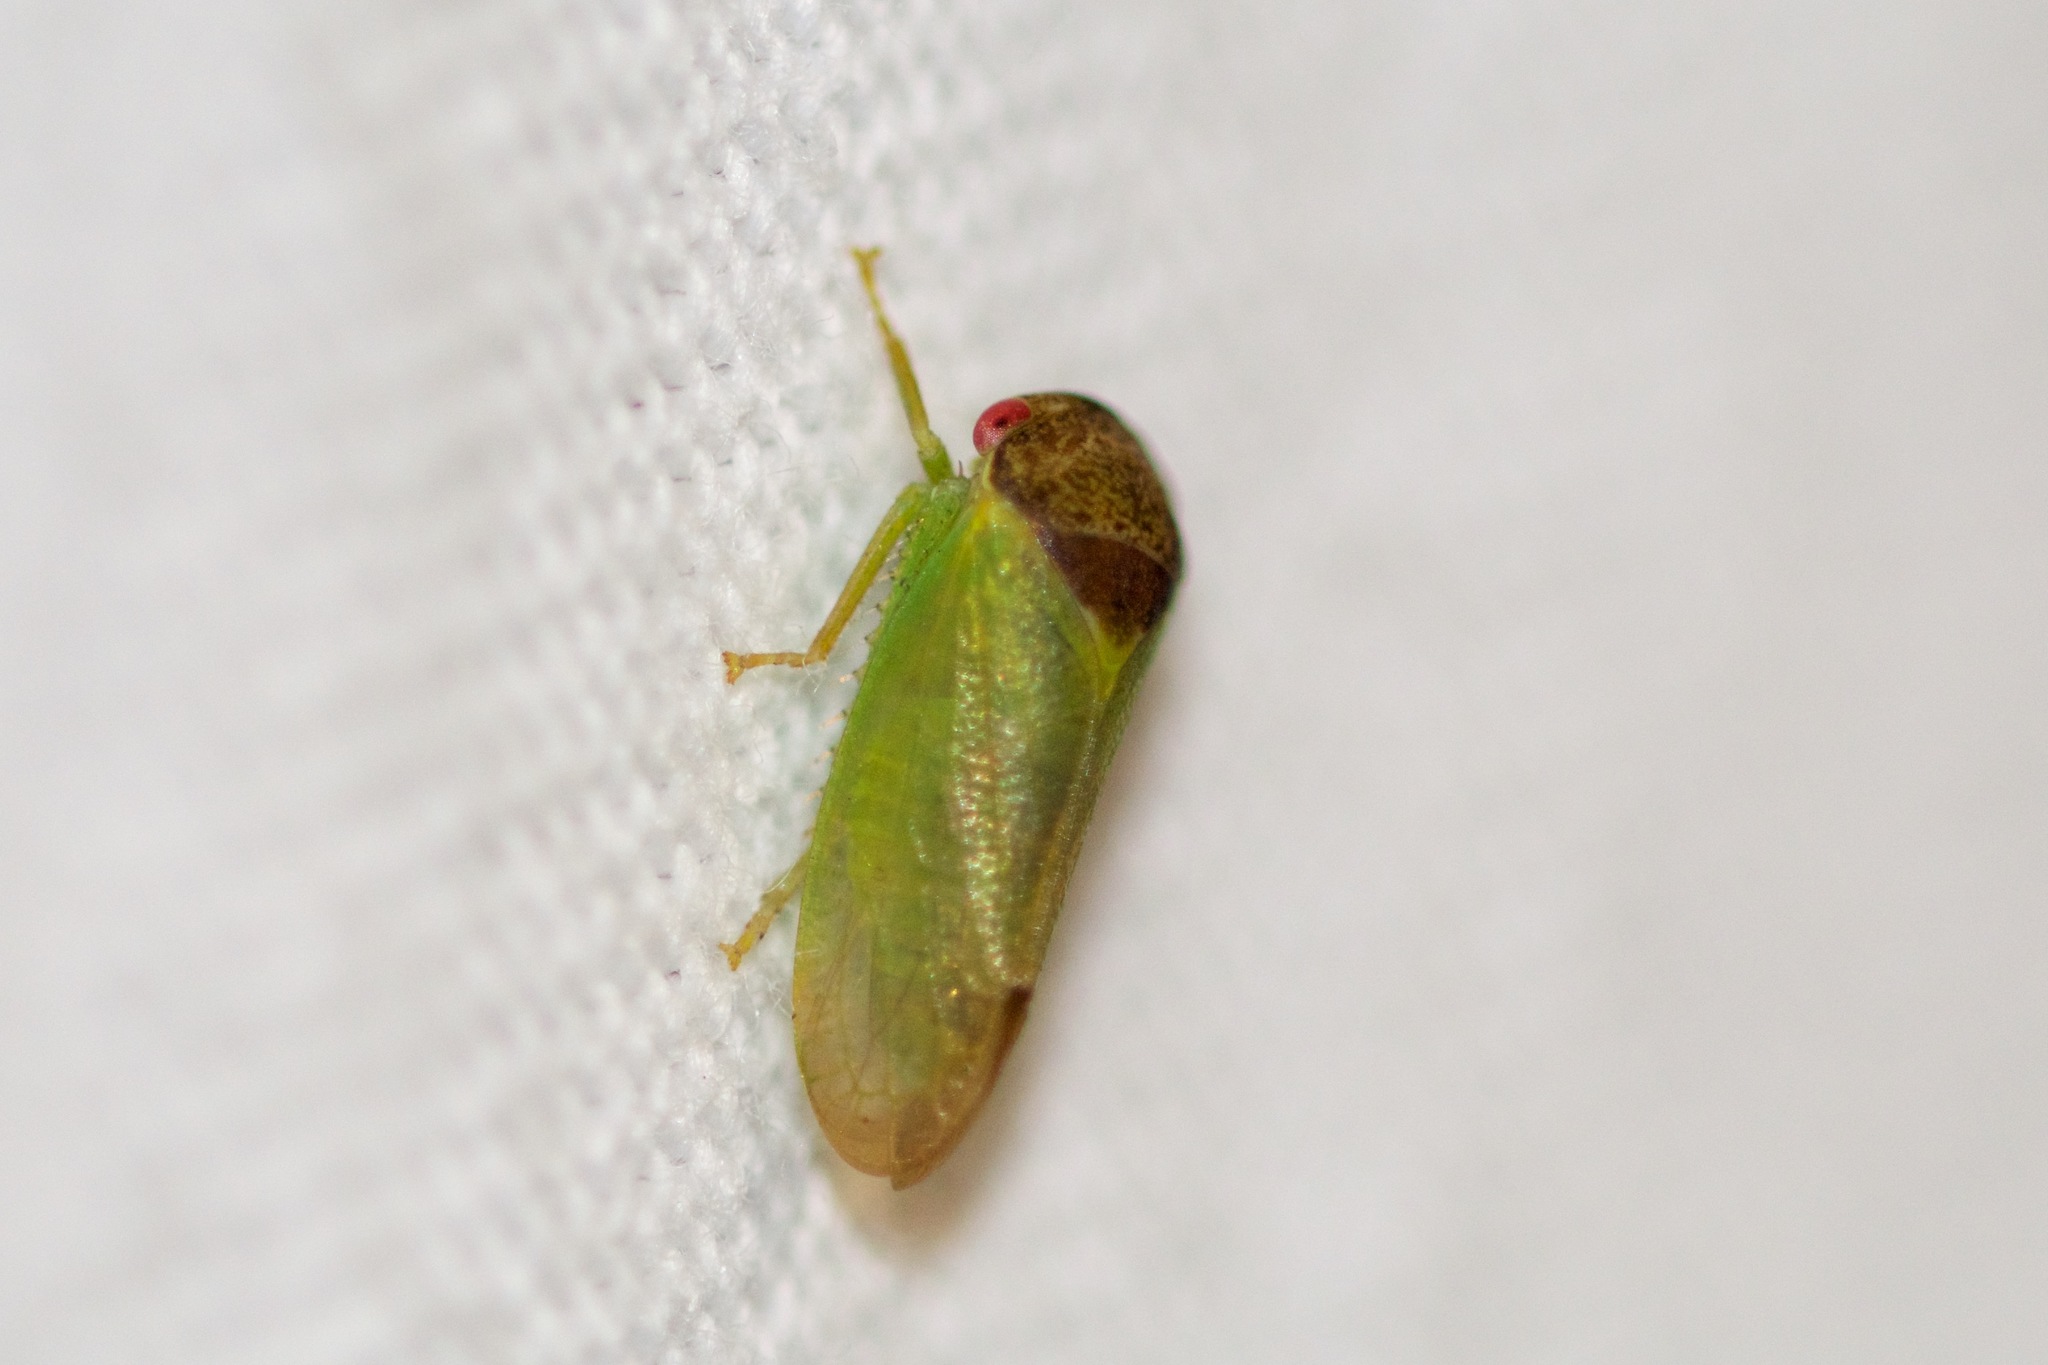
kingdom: Animalia
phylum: Arthropoda
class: Insecta
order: Hemiptera
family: Cicadellidae
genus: Iassus
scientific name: Iassus lanio
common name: Leafhopper
